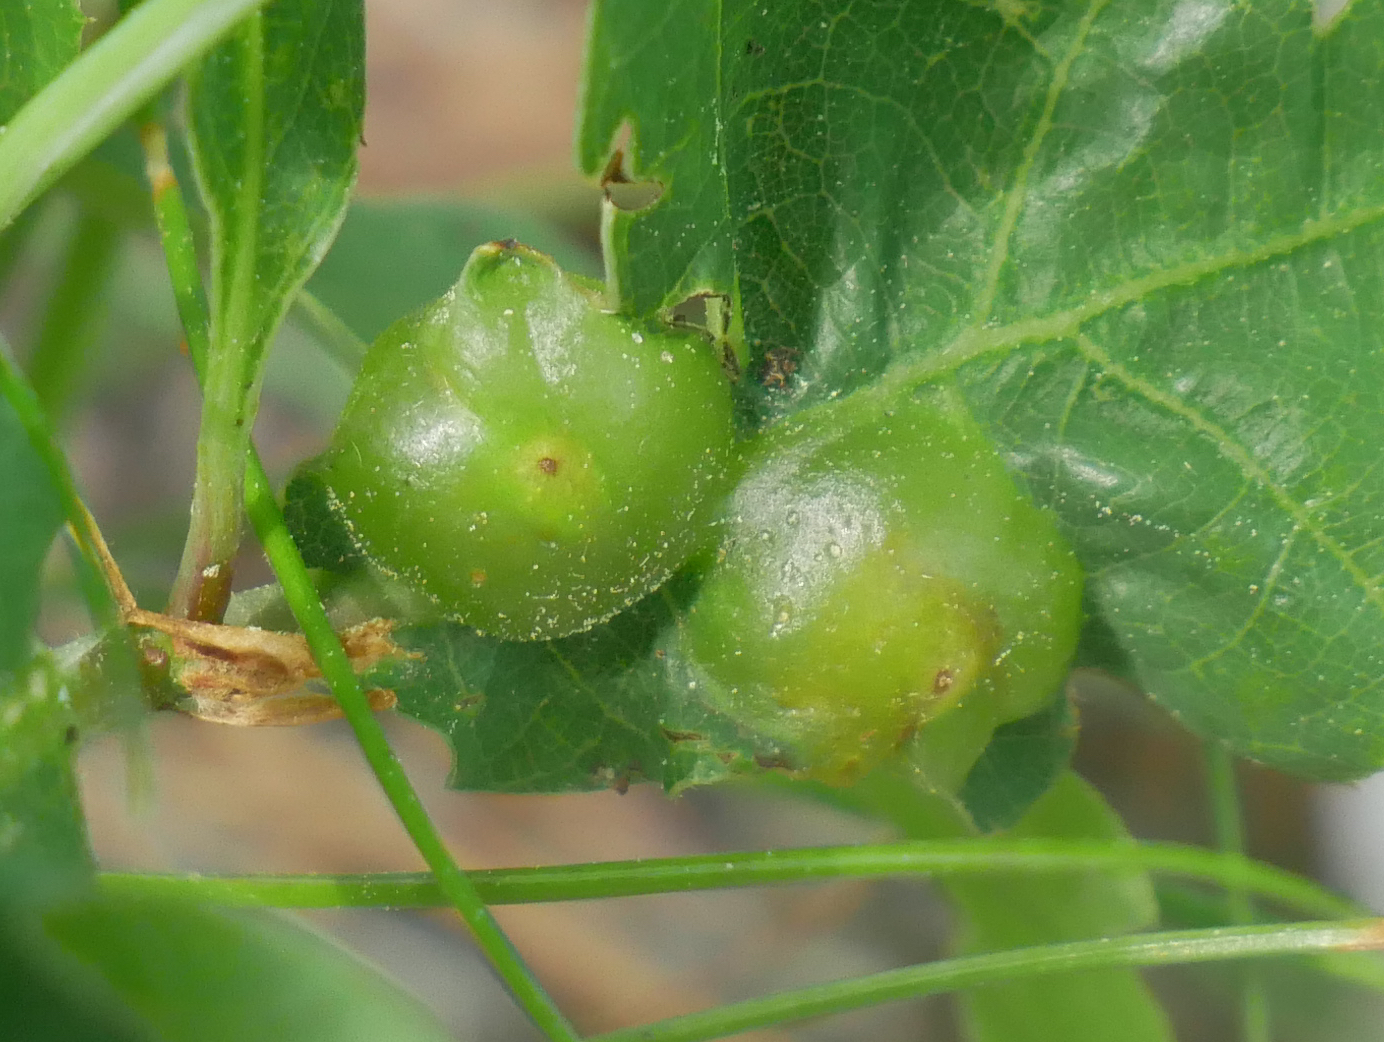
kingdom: Animalia
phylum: Arthropoda
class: Insecta
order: Hymenoptera
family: Cynipidae
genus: Andricus
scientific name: Andricus curvator
